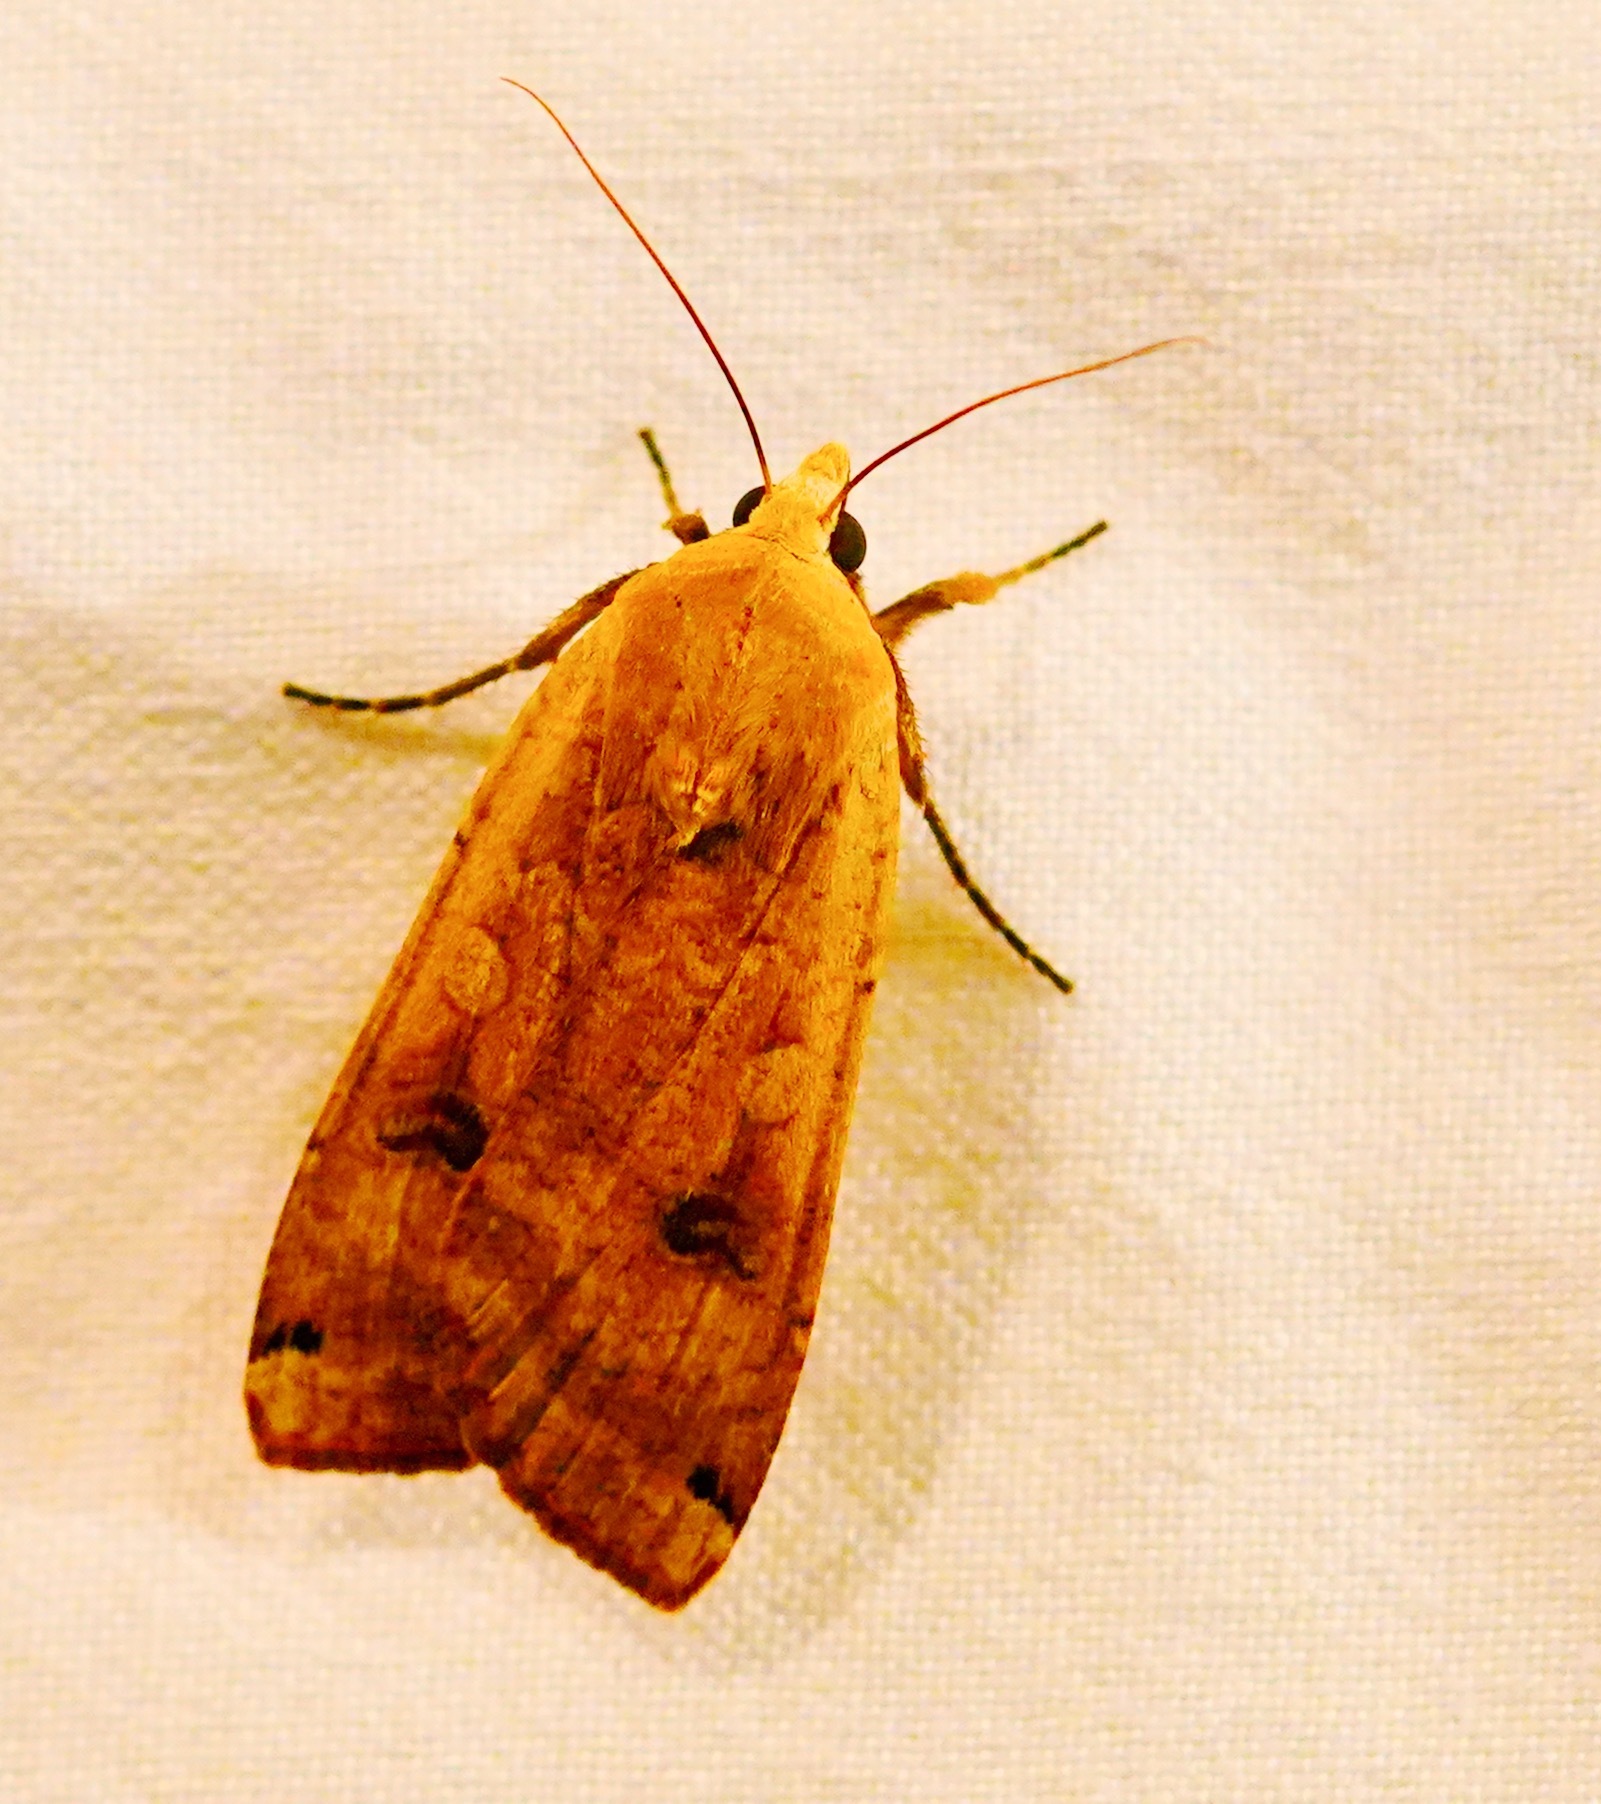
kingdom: Animalia
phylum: Arthropoda
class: Insecta
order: Lepidoptera
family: Noctuidae
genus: Noctua
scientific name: Noctua pronuba
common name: Large yellow underwing
